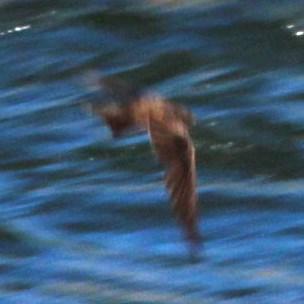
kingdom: Animalia
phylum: Chordata
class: Aves
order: Passeriformes
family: Hirundinidae
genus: Ptyonoprogne
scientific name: Ptyonoprogne fuligula
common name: Rock martin
